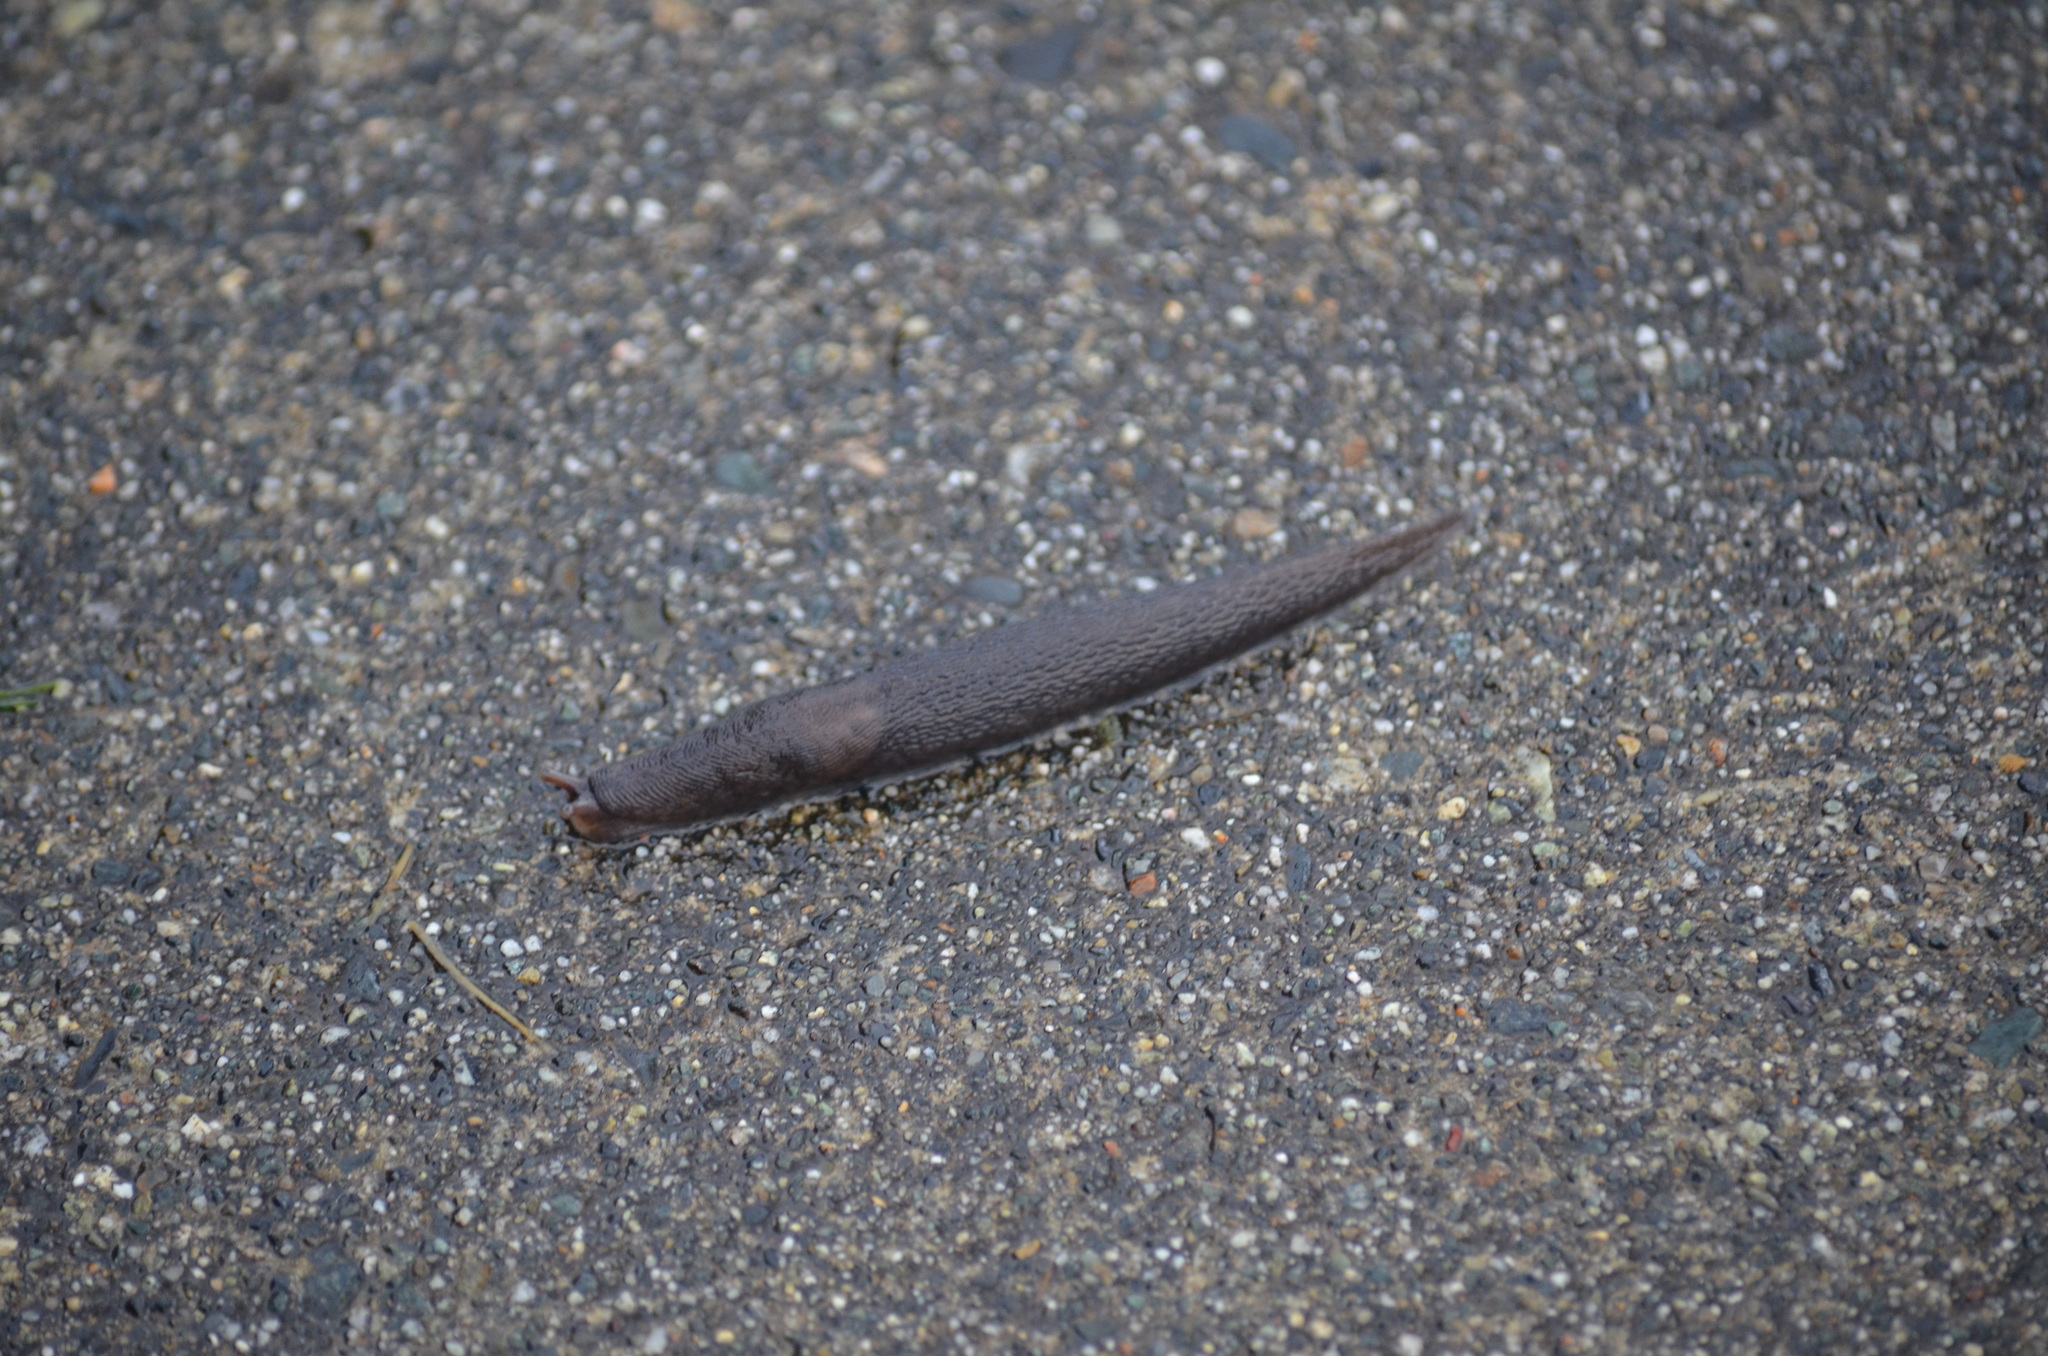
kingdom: Animalia
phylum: Mollusca
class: Gastropoda
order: Stylommatophora
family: Limacidae
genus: Limax
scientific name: Limax maximus
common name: Great grey slug
